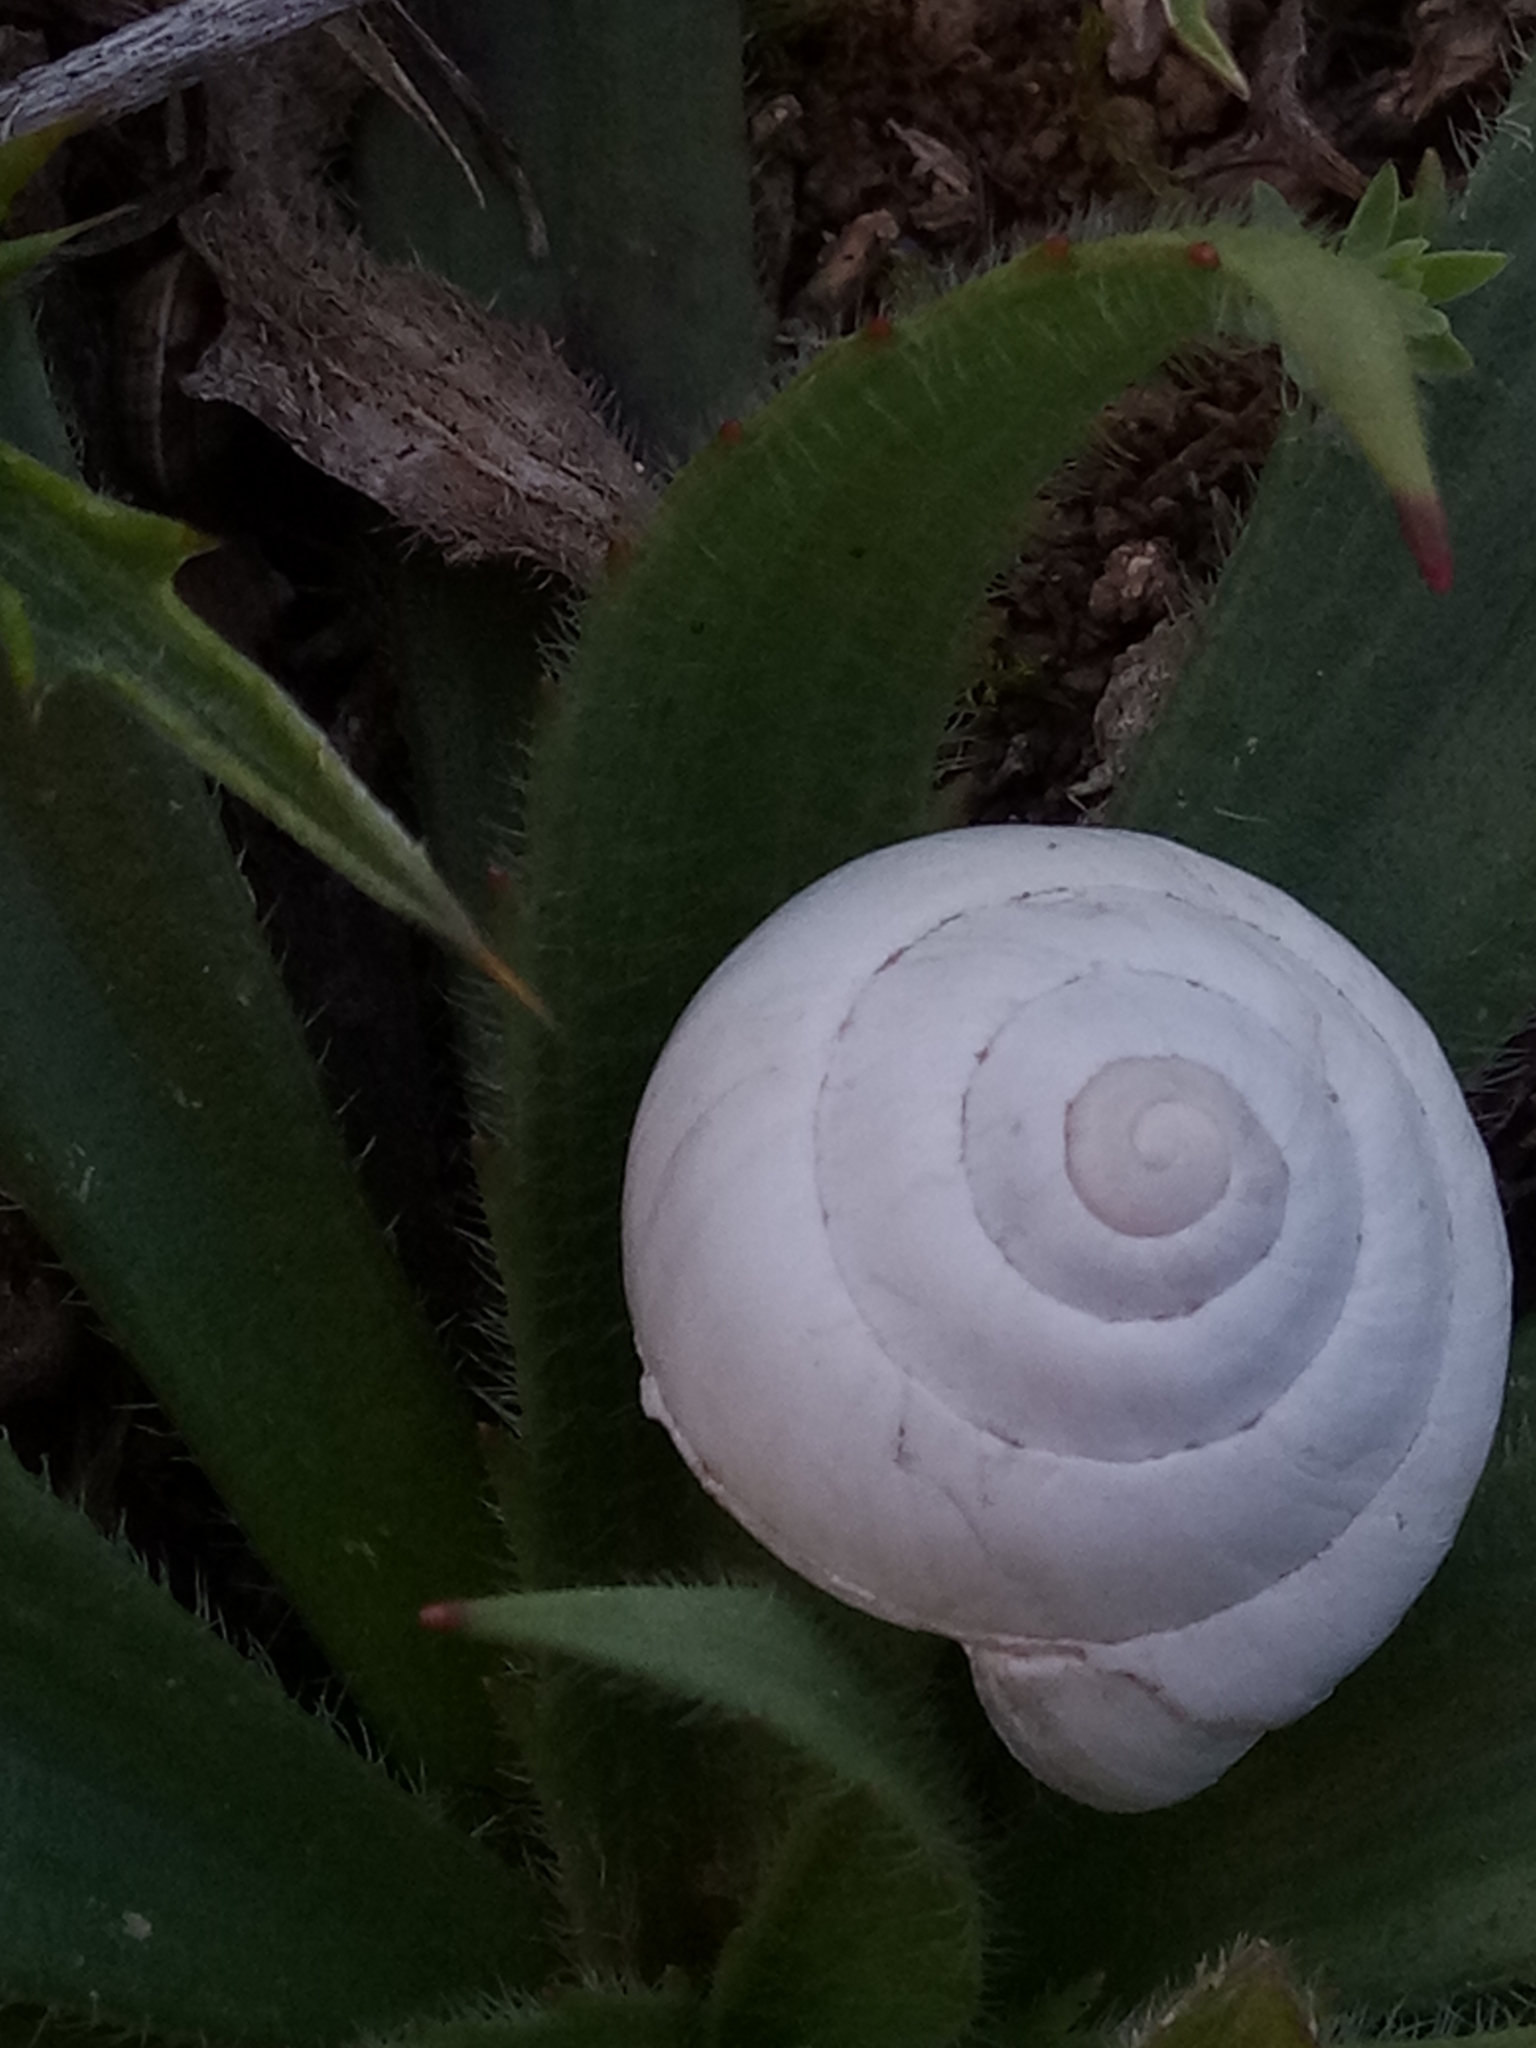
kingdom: Animalia
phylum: Mollusca
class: Gastropoda
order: Stylommatophora
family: Sphincterochilidae
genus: Sphincterochila
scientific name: Sphincterochila candidissima
